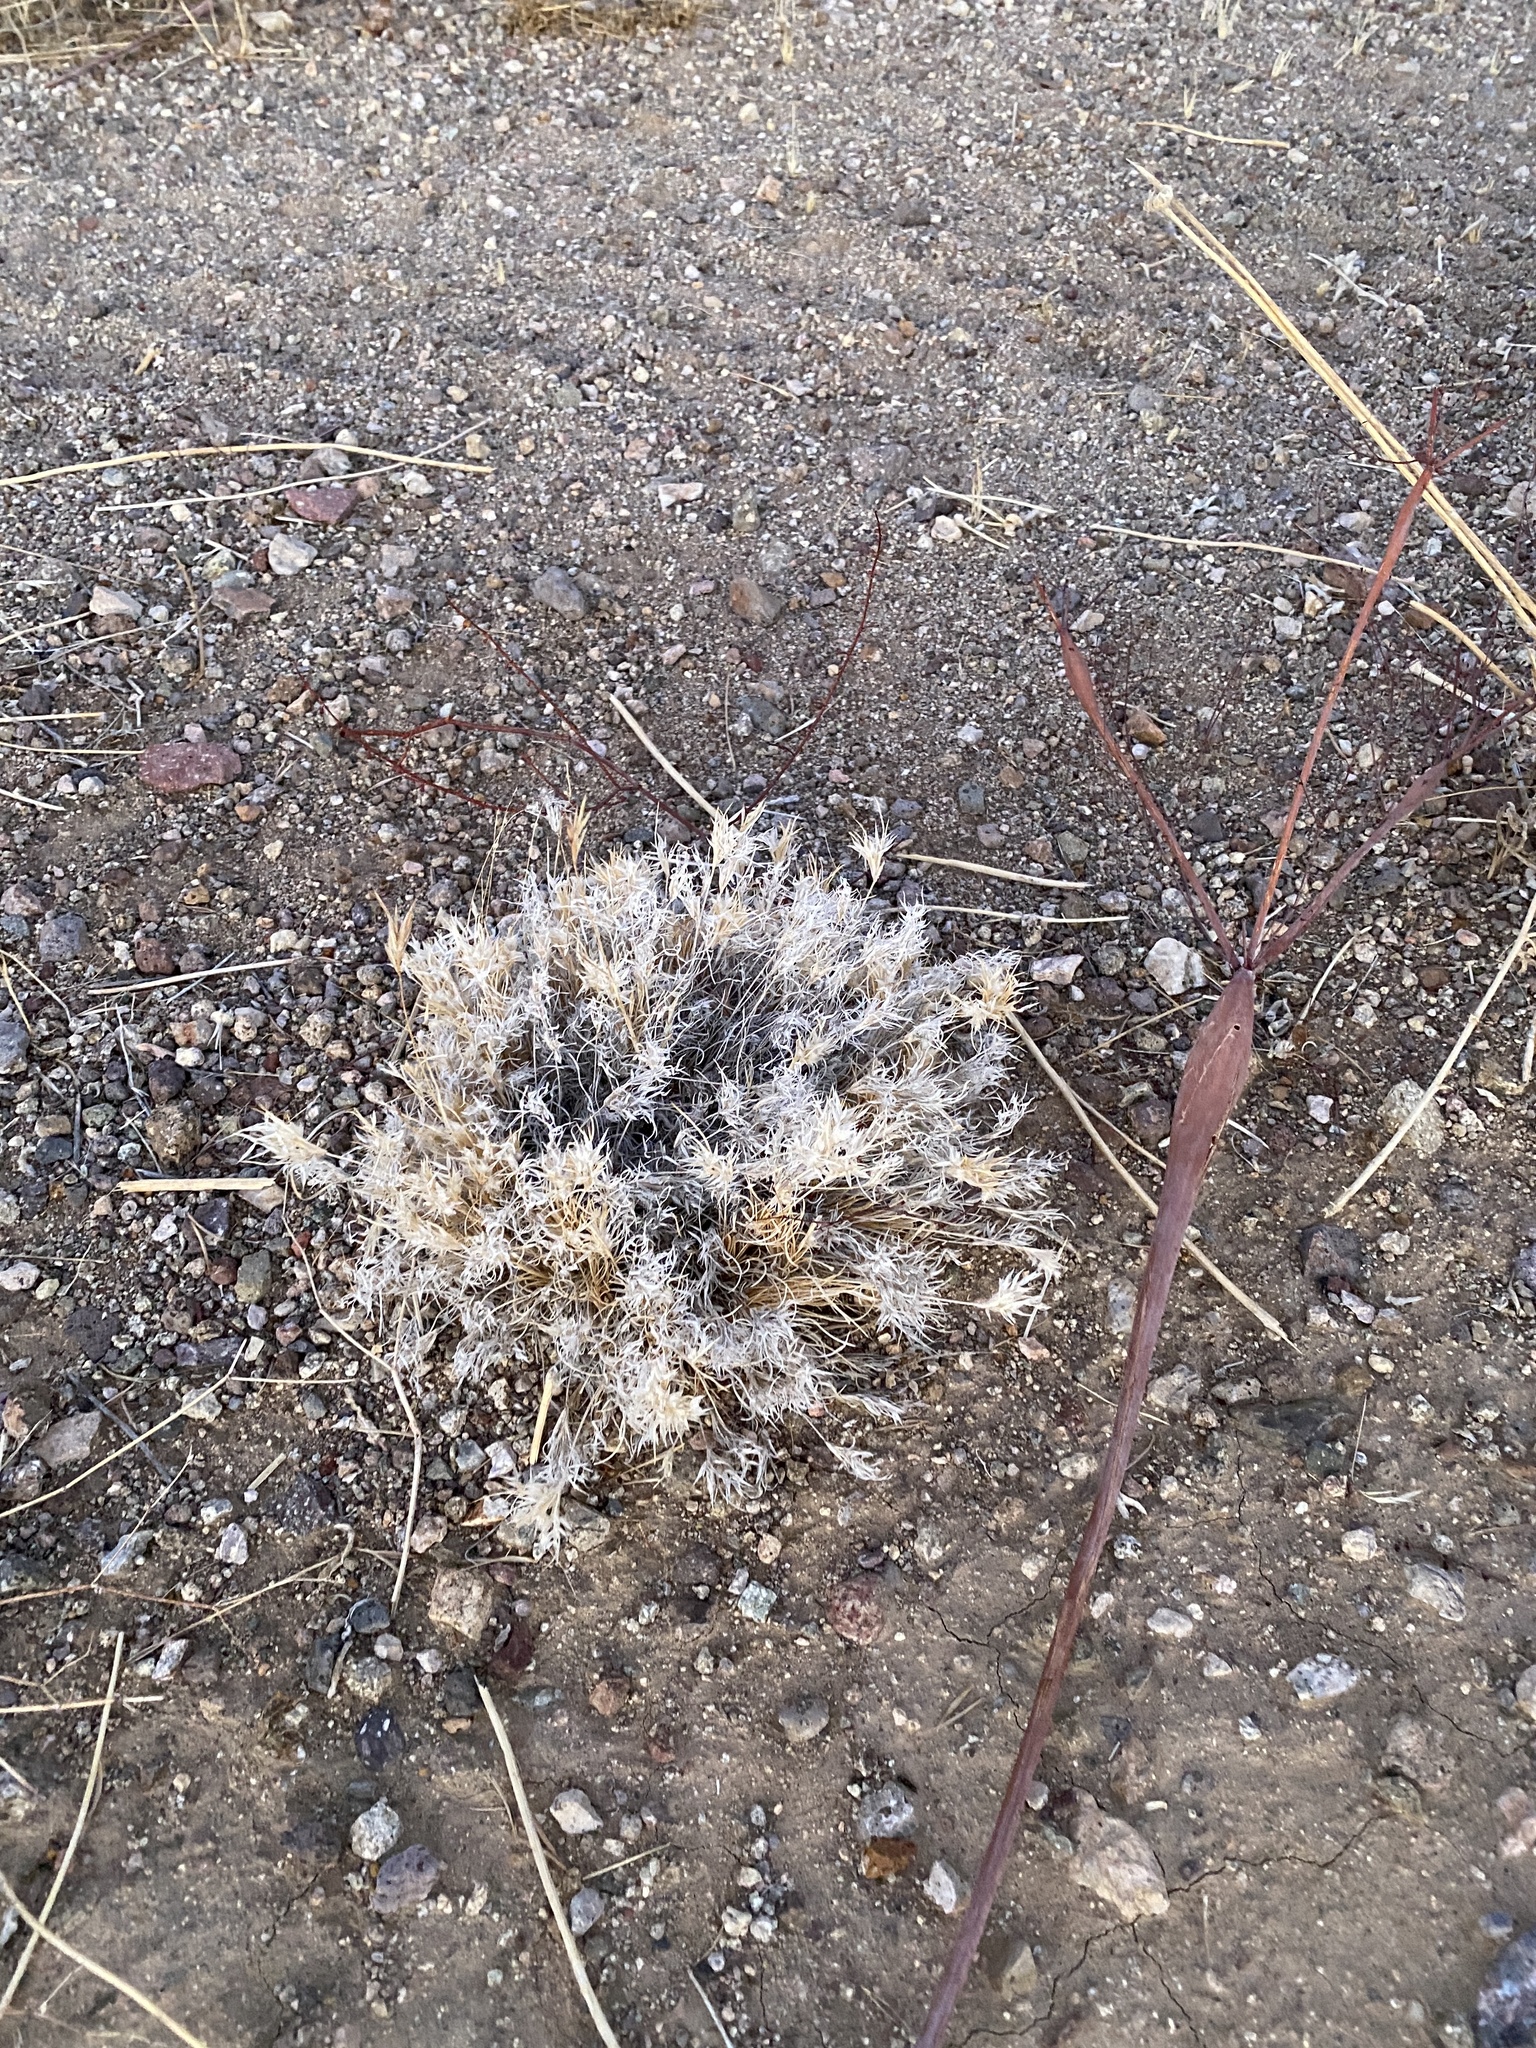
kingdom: Plantae
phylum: Tracheophyta
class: Liliopsida
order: Poales
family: Poaceae
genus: Dasyochloa
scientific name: Dasyochloa pulchella
